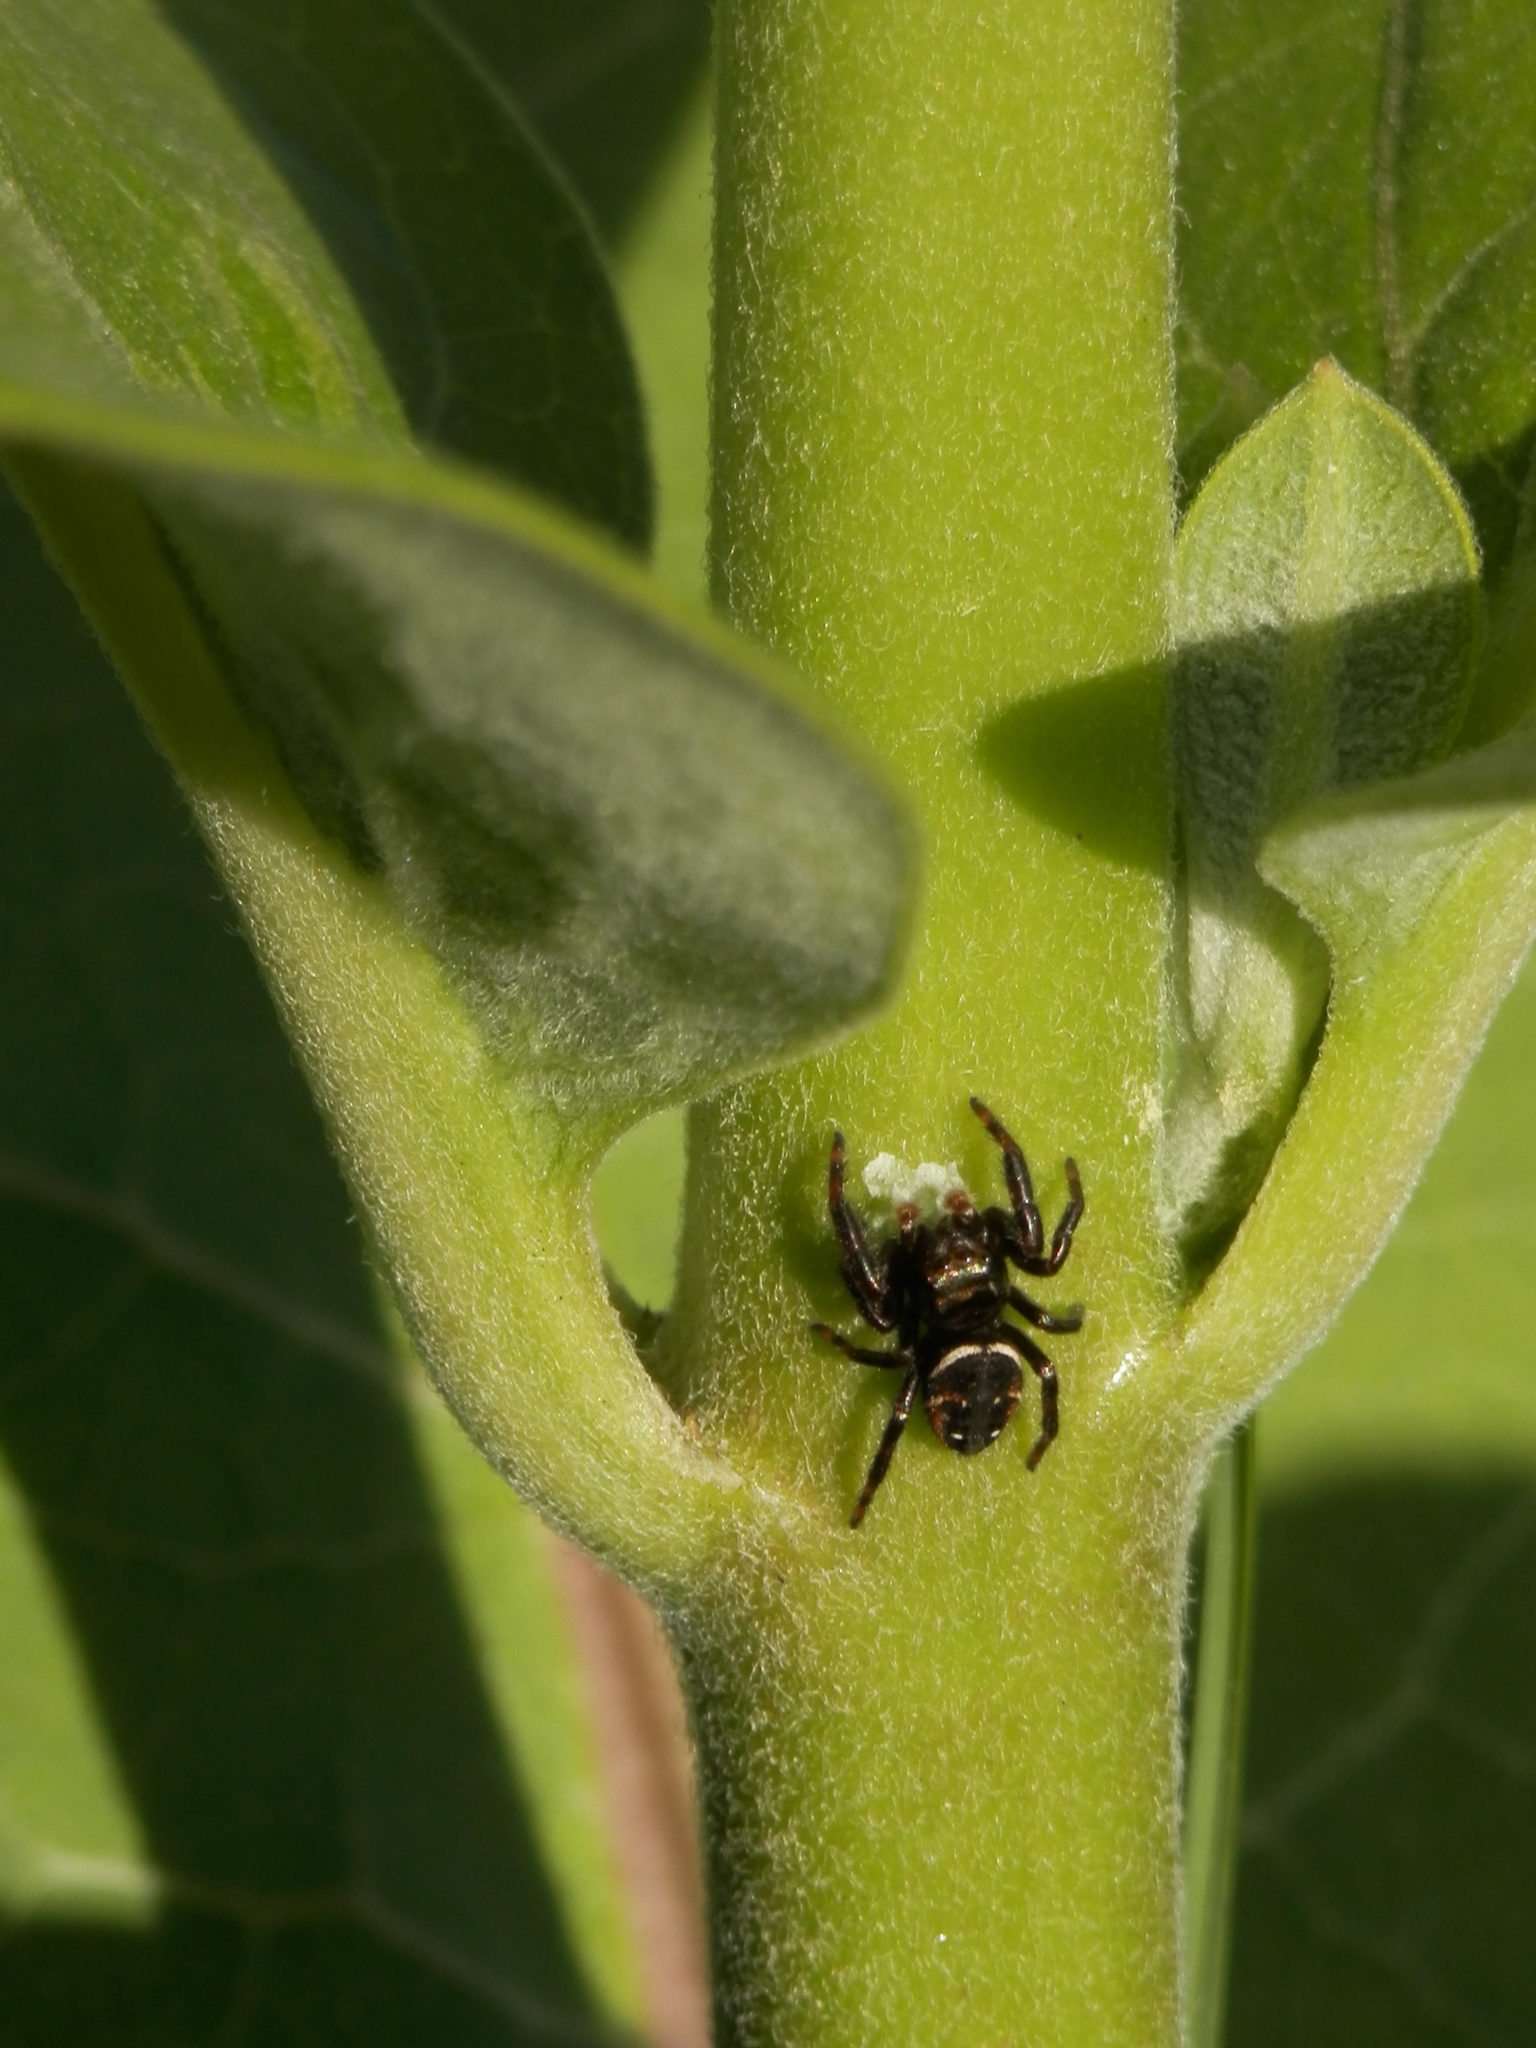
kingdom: Animalia
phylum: Arthropoda
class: Arachnida
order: Araneae
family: Salticidae
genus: Phidippus
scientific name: Phidippus clarus
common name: Brilliant jumping spider
